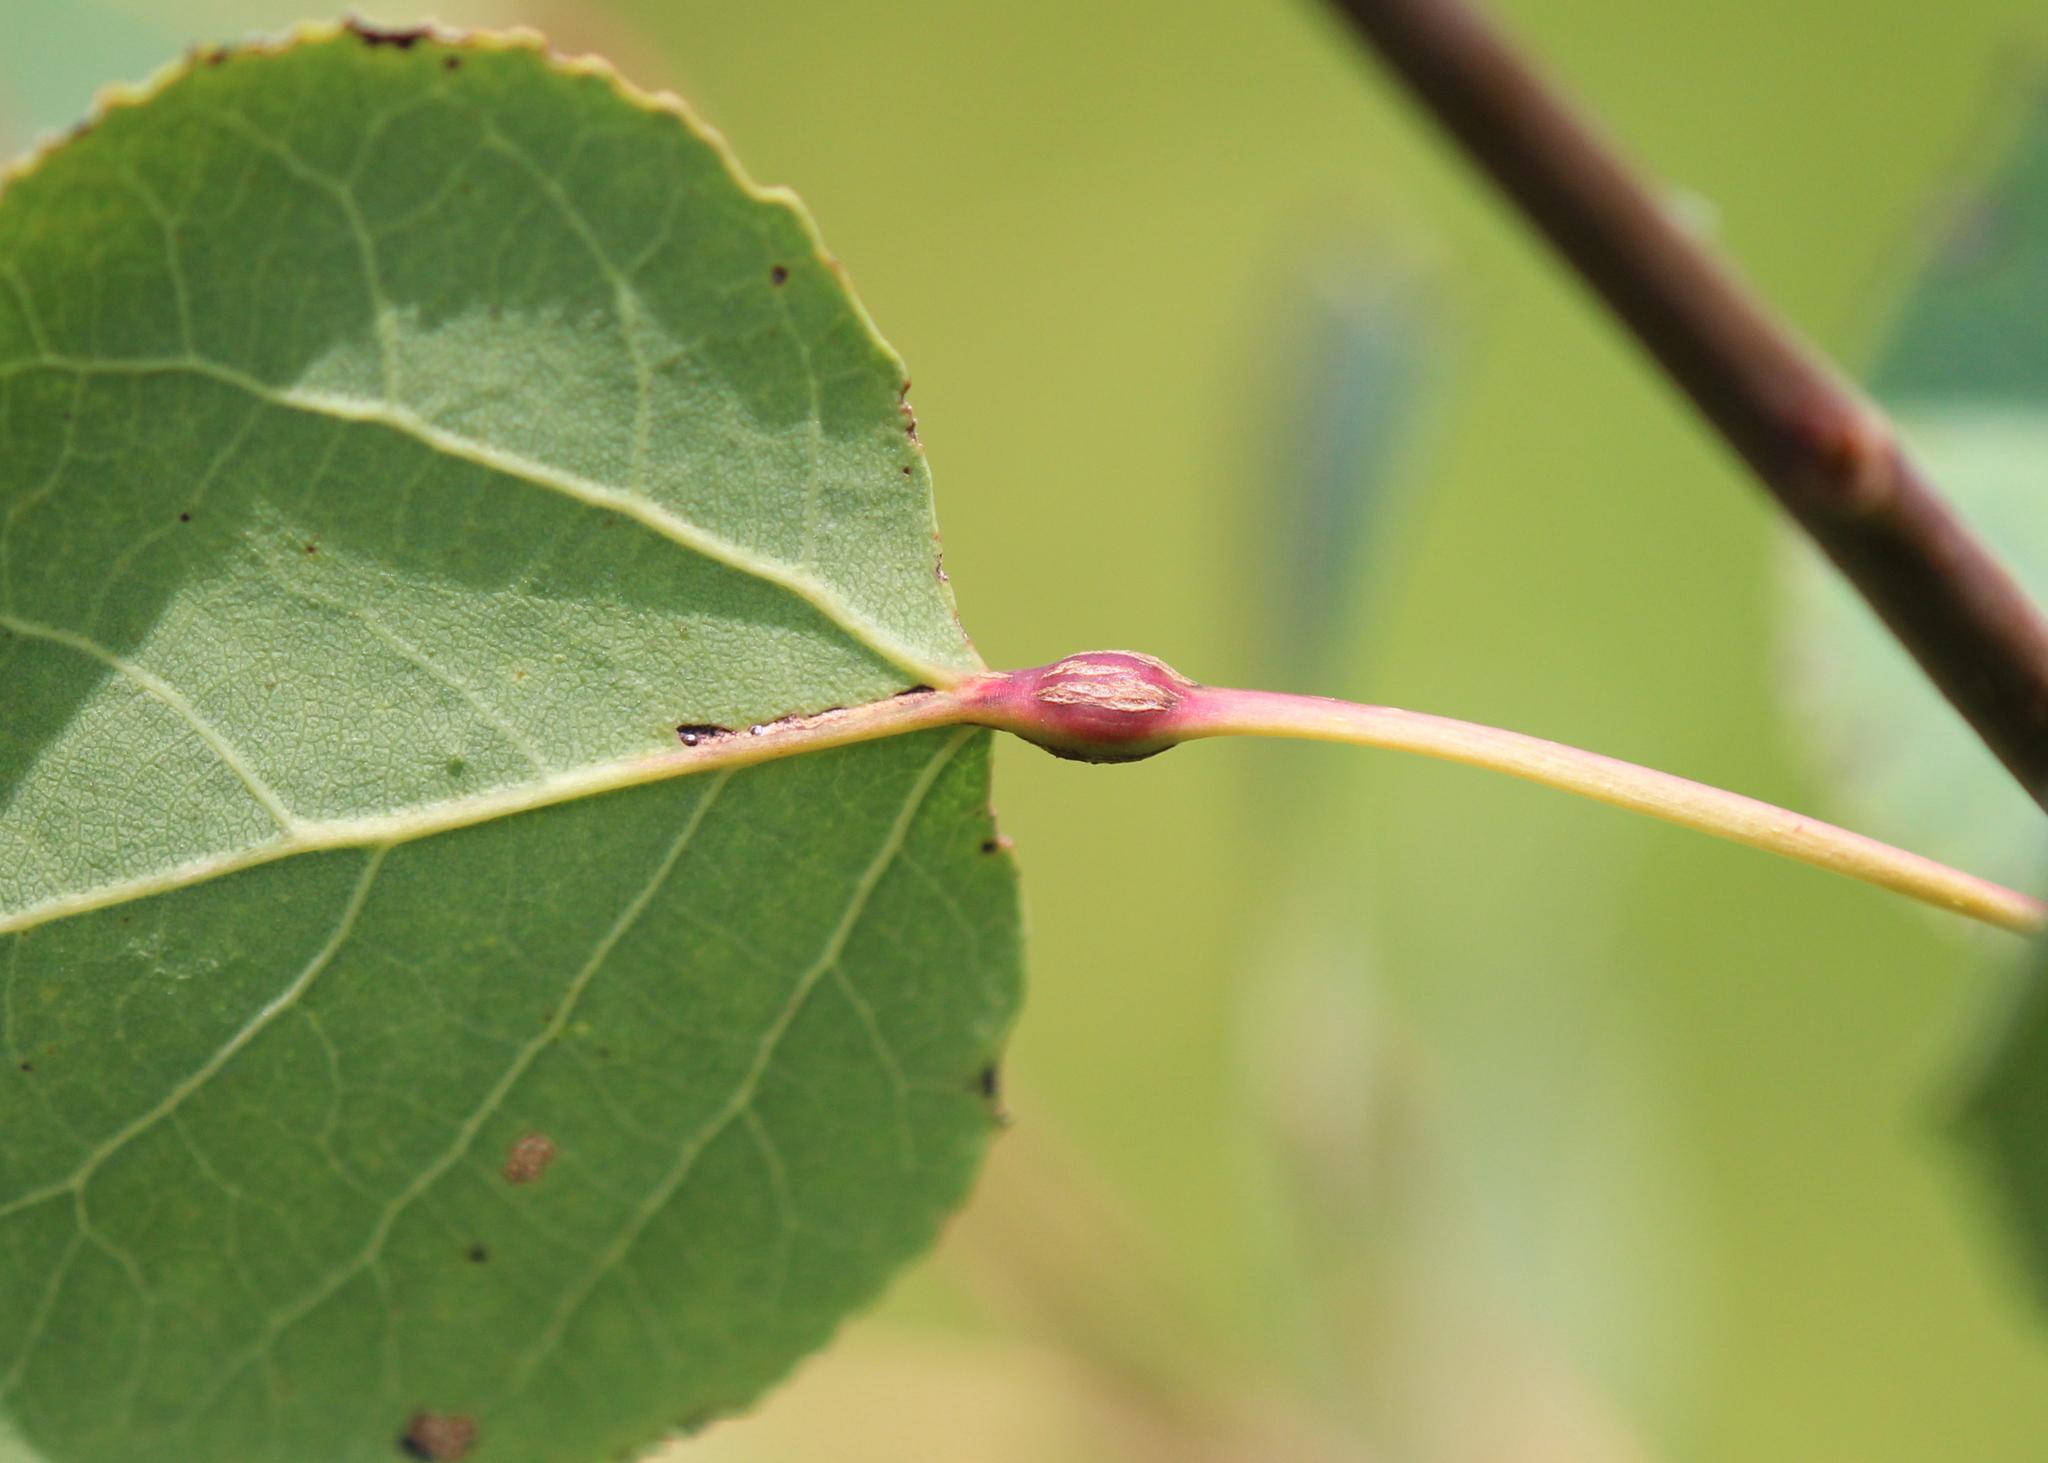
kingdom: Animalia
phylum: Arthropoda
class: Insecta
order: Lepidoptera
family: Nepticulidae
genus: Ectoedemia
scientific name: Ectoedemia populella
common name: Aspen petiole gall moth
